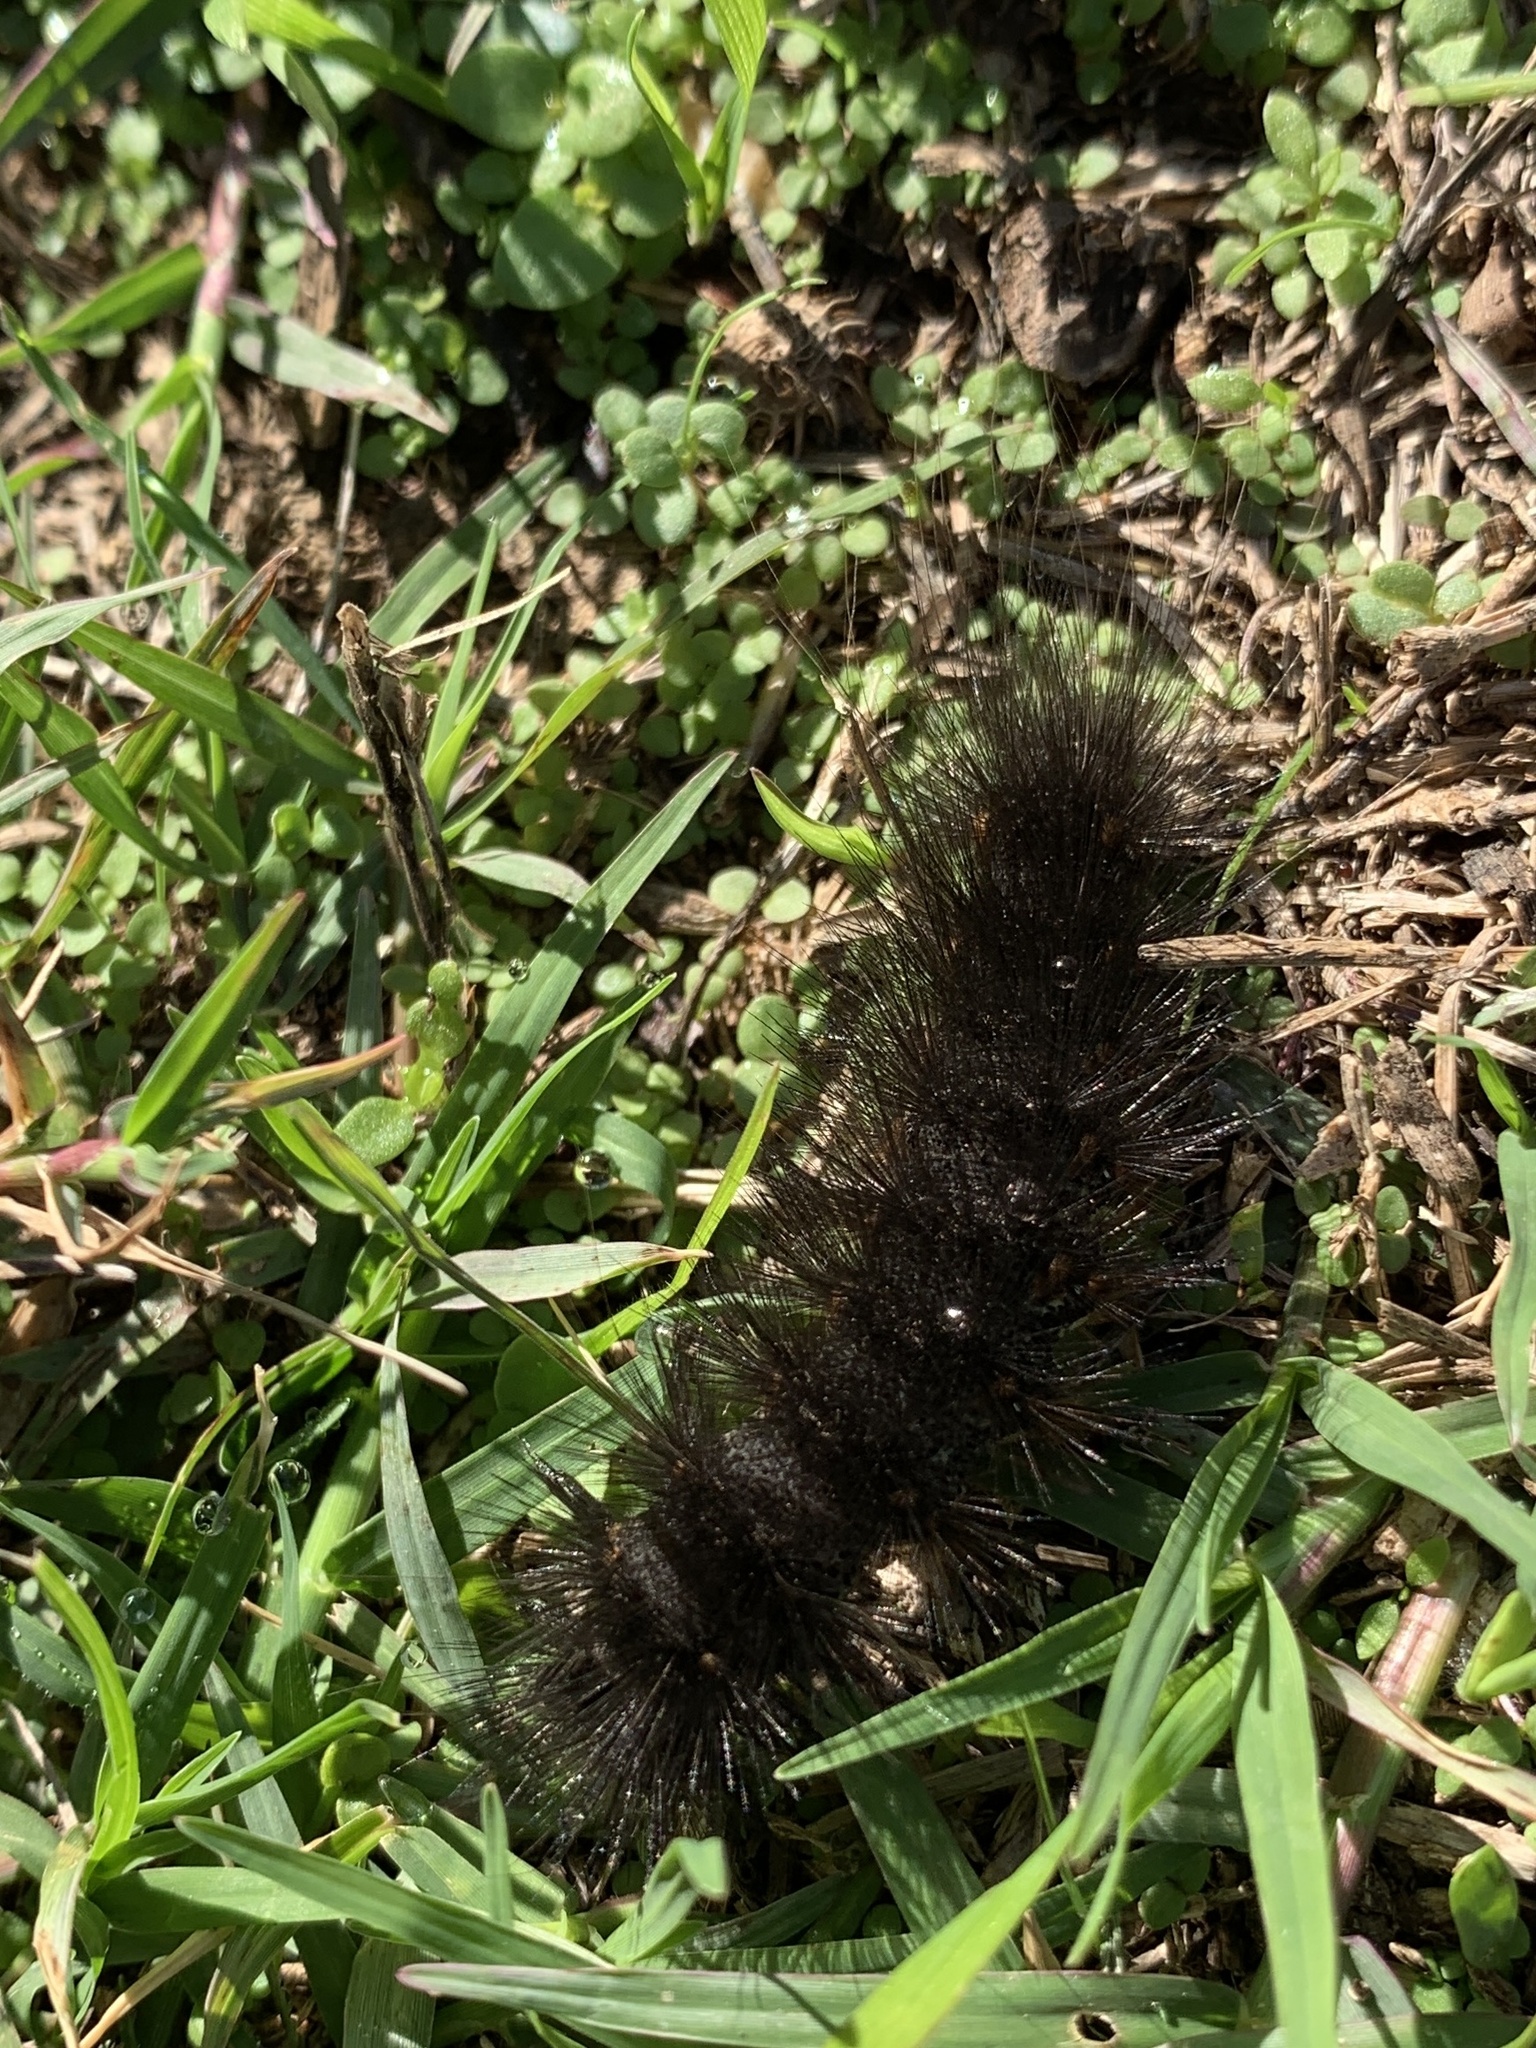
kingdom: Animalia
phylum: Arthropoda
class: Insecta
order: Lepidoptera
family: Erebidae
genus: Estigmene
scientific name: Estigmene acrea
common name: Salt marsh moth
